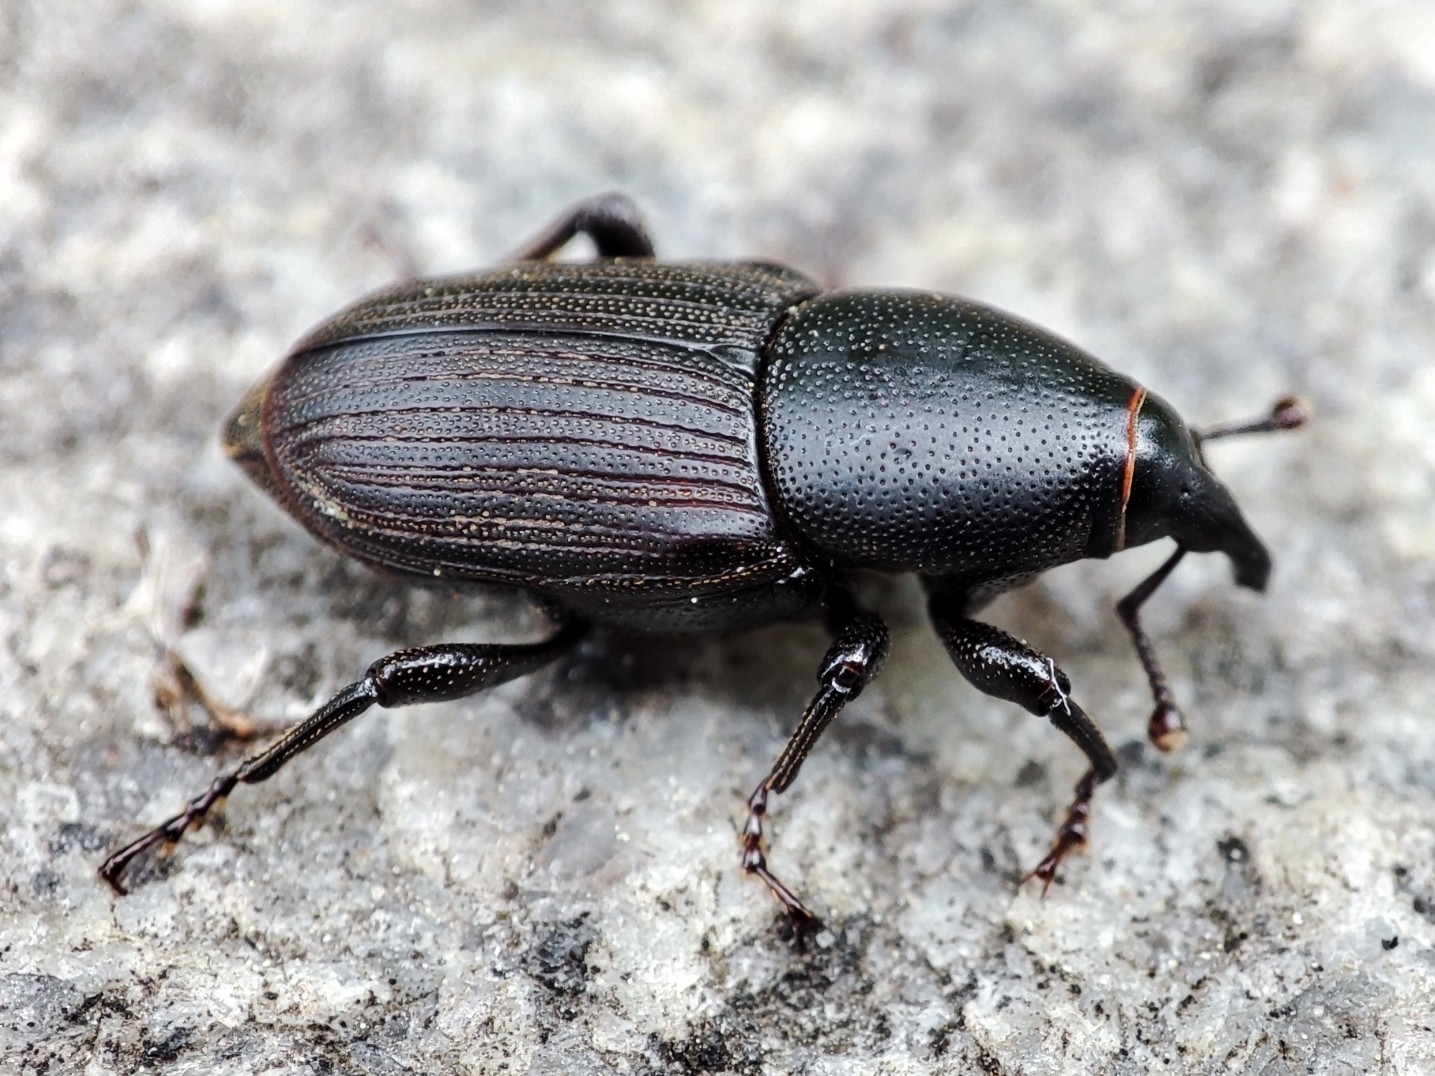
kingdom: Animalia
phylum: Arthropoda
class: Insecta
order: Coleoptera
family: Dryophthoridae
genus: Sphenophorus
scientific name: Sphenophorus striatopunctatus
